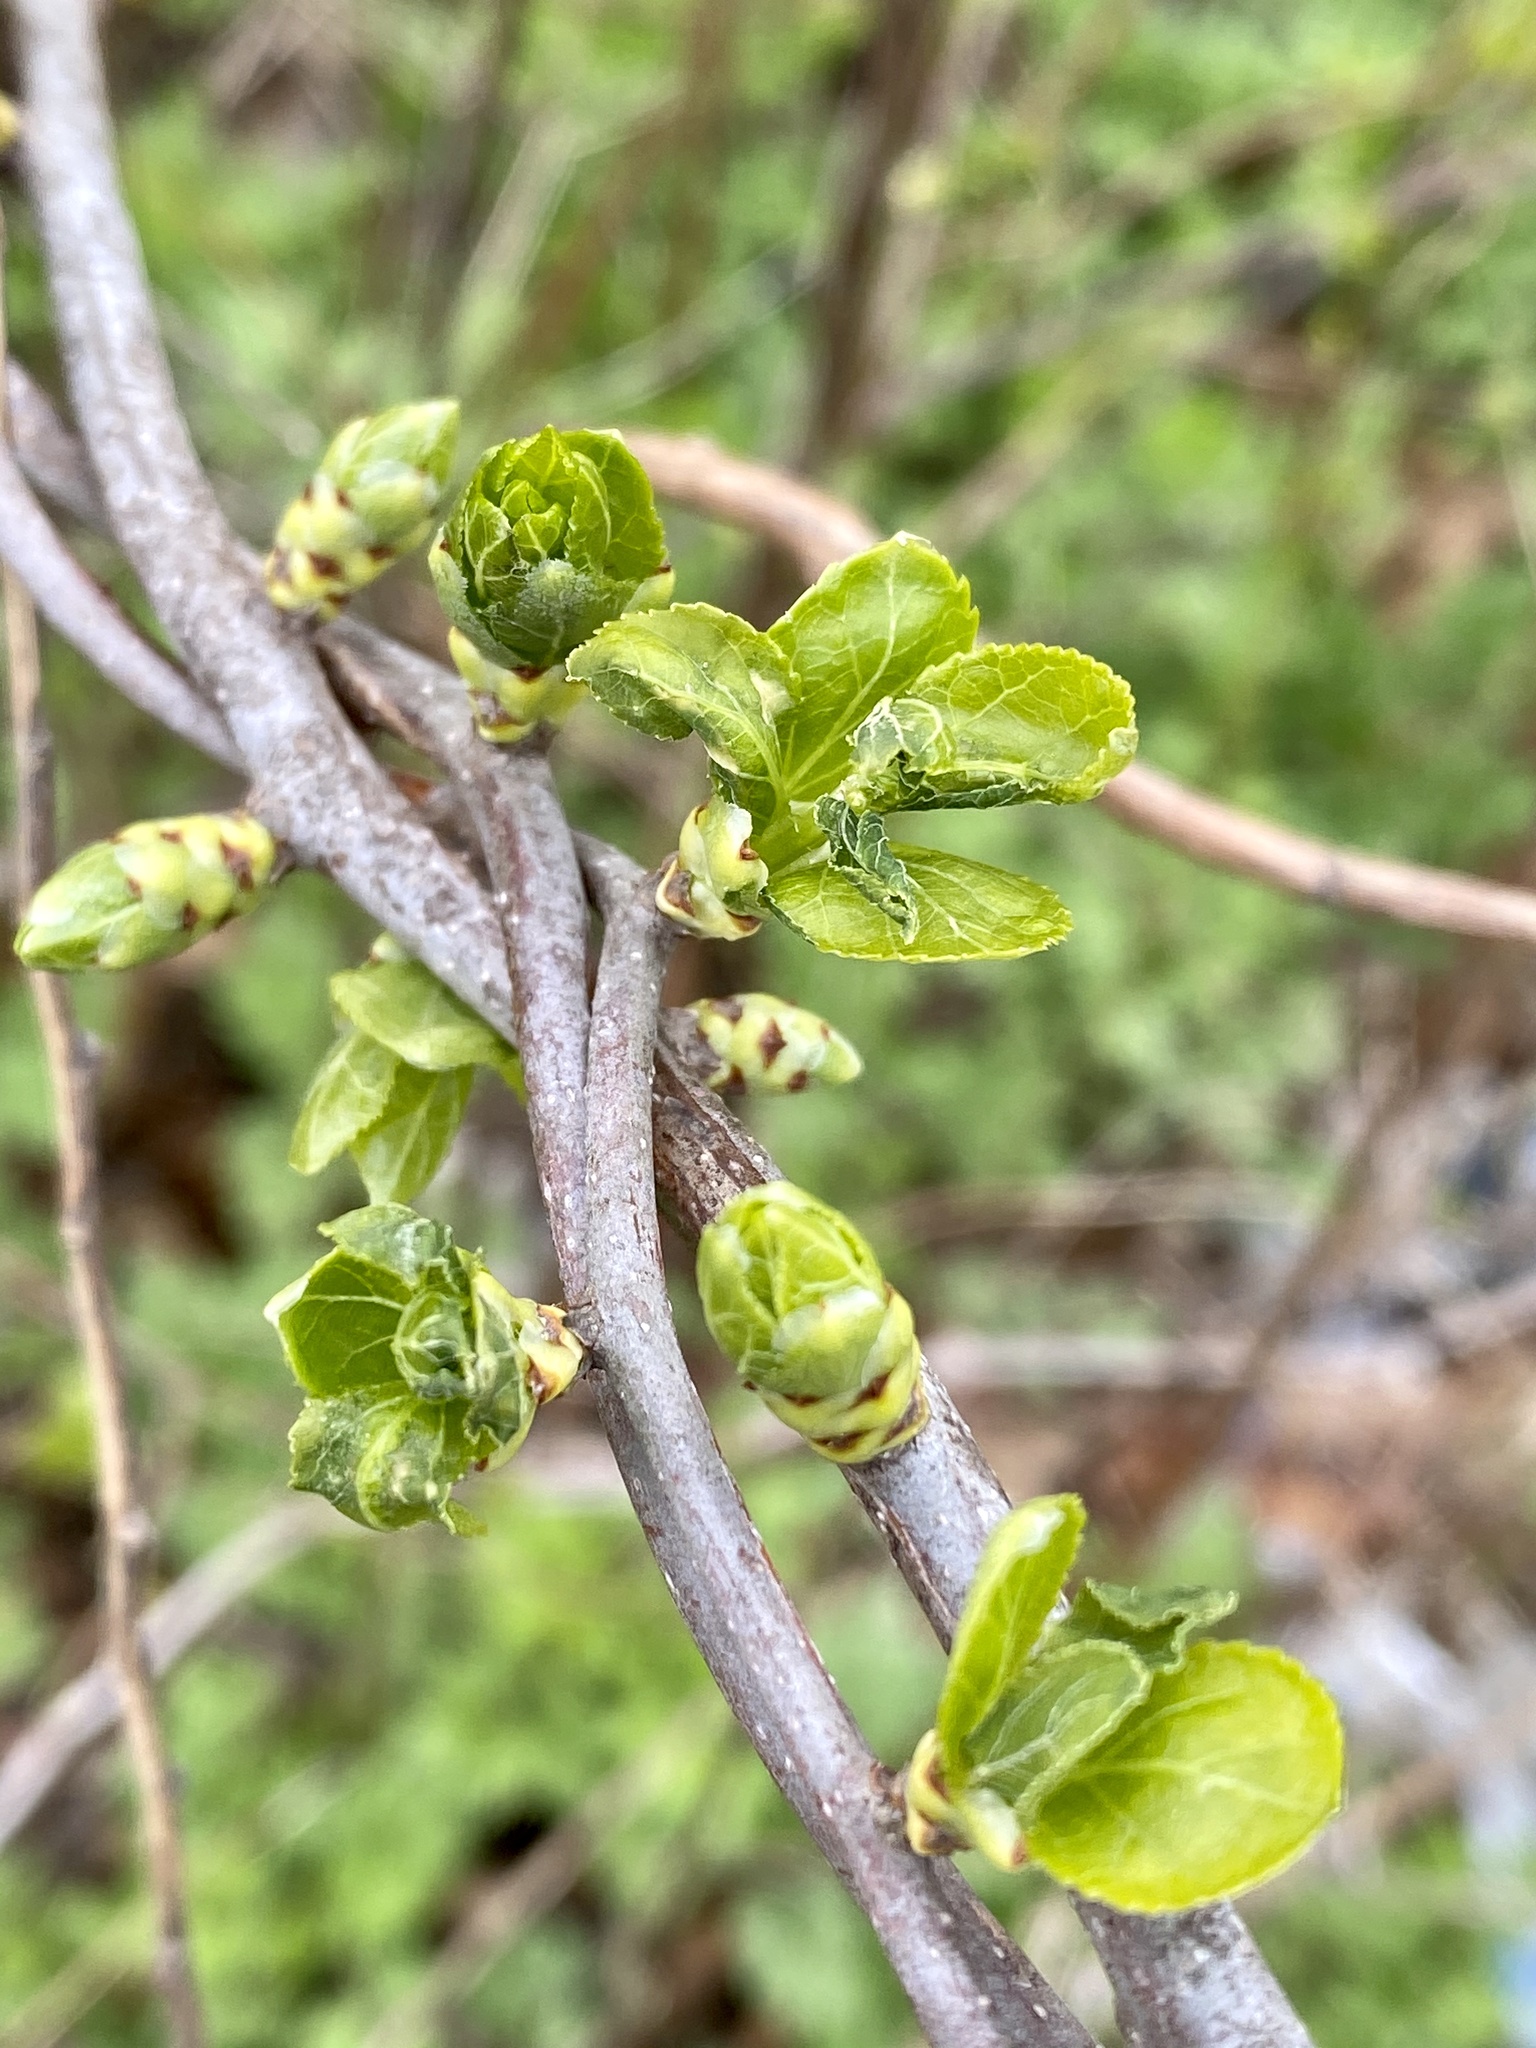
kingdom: Plantae
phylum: Tracheophyta
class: Magnoliopsida
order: Celastrales
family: Celastraceae
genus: Celastrus
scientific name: Celastrus orbiculatus
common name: Oriental bittersweet
